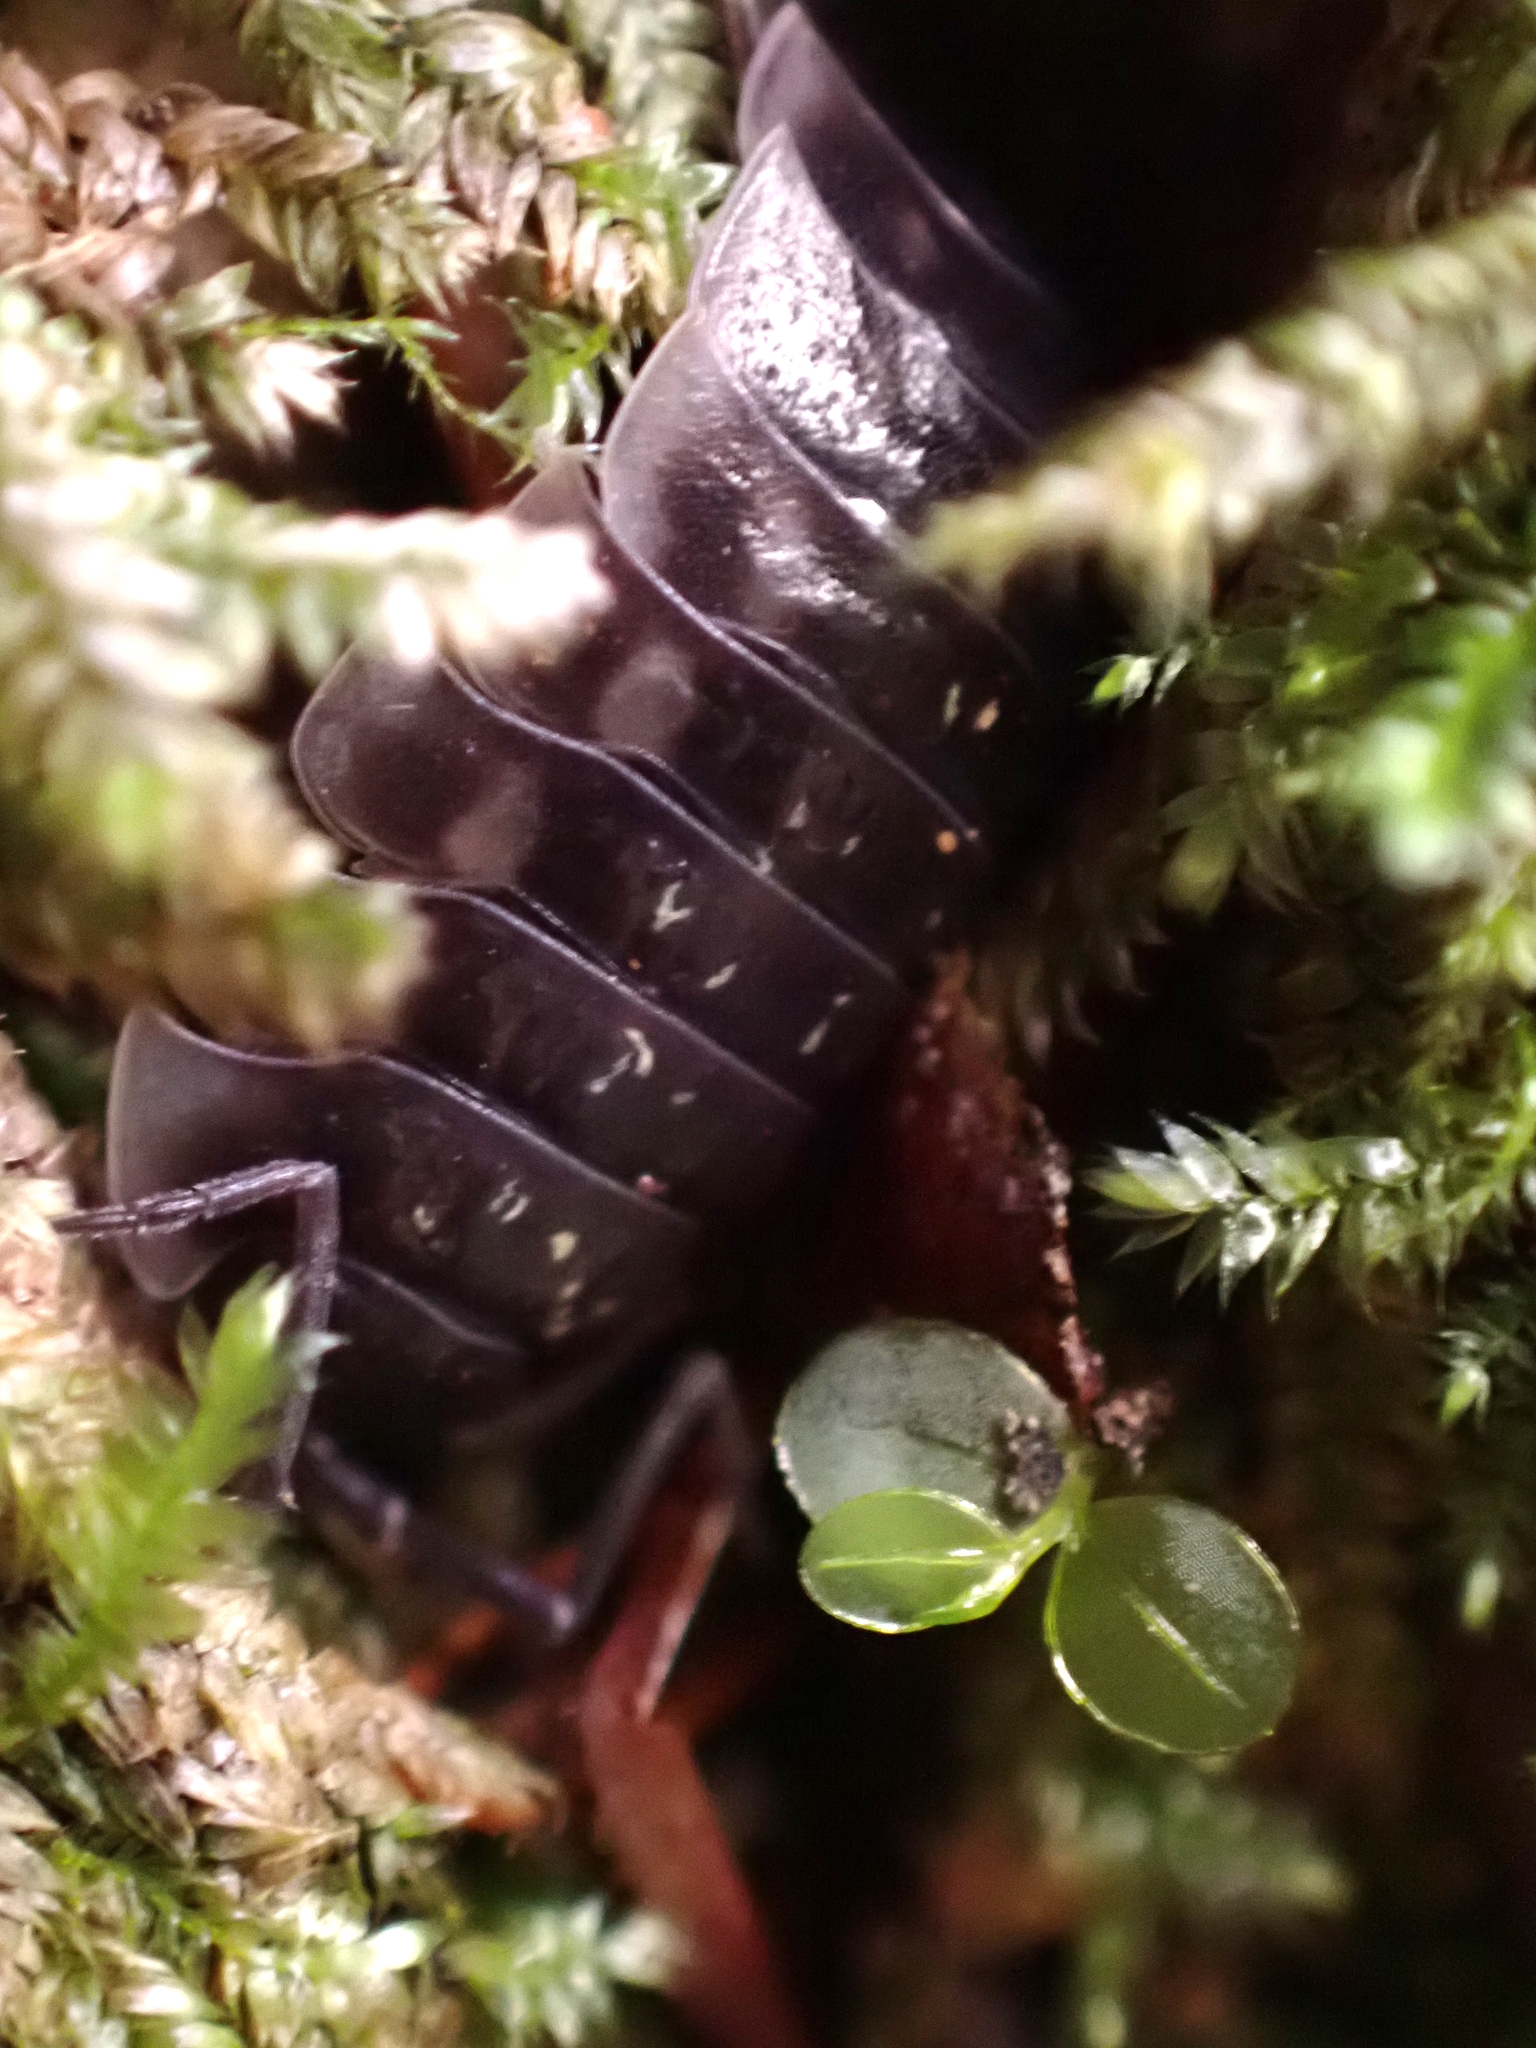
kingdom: Animalia
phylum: Arthropoda
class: Malacostraca
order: Isopoda
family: Oniscidae
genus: Oniscus
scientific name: Oniscus asellus
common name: Common shiny woodlouse
